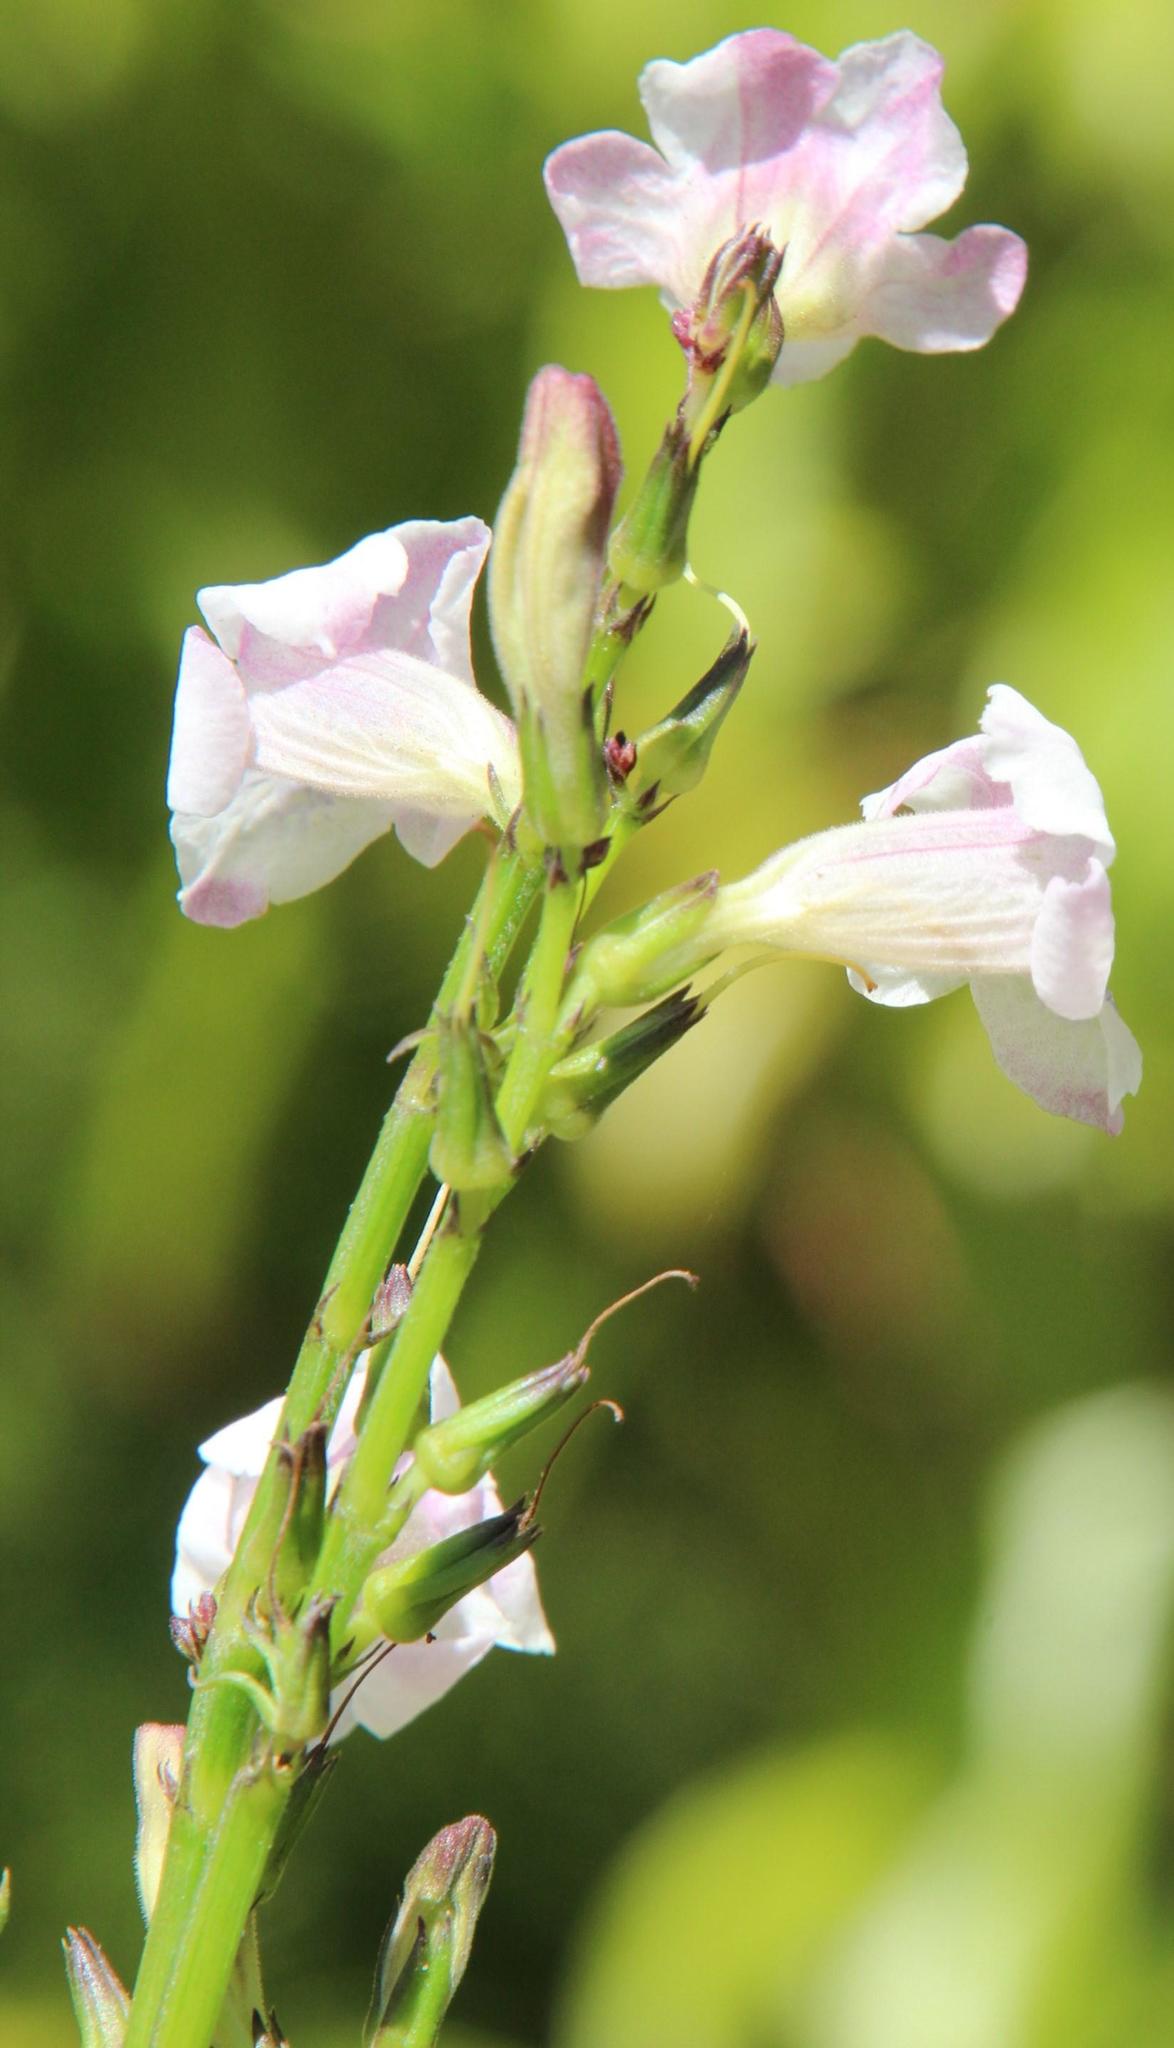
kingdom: Plantae
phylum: Tracheophyta
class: Magnoliopsida
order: Lamiales
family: Acanthaceae
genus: Asystasia
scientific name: Asystasia intrusa
